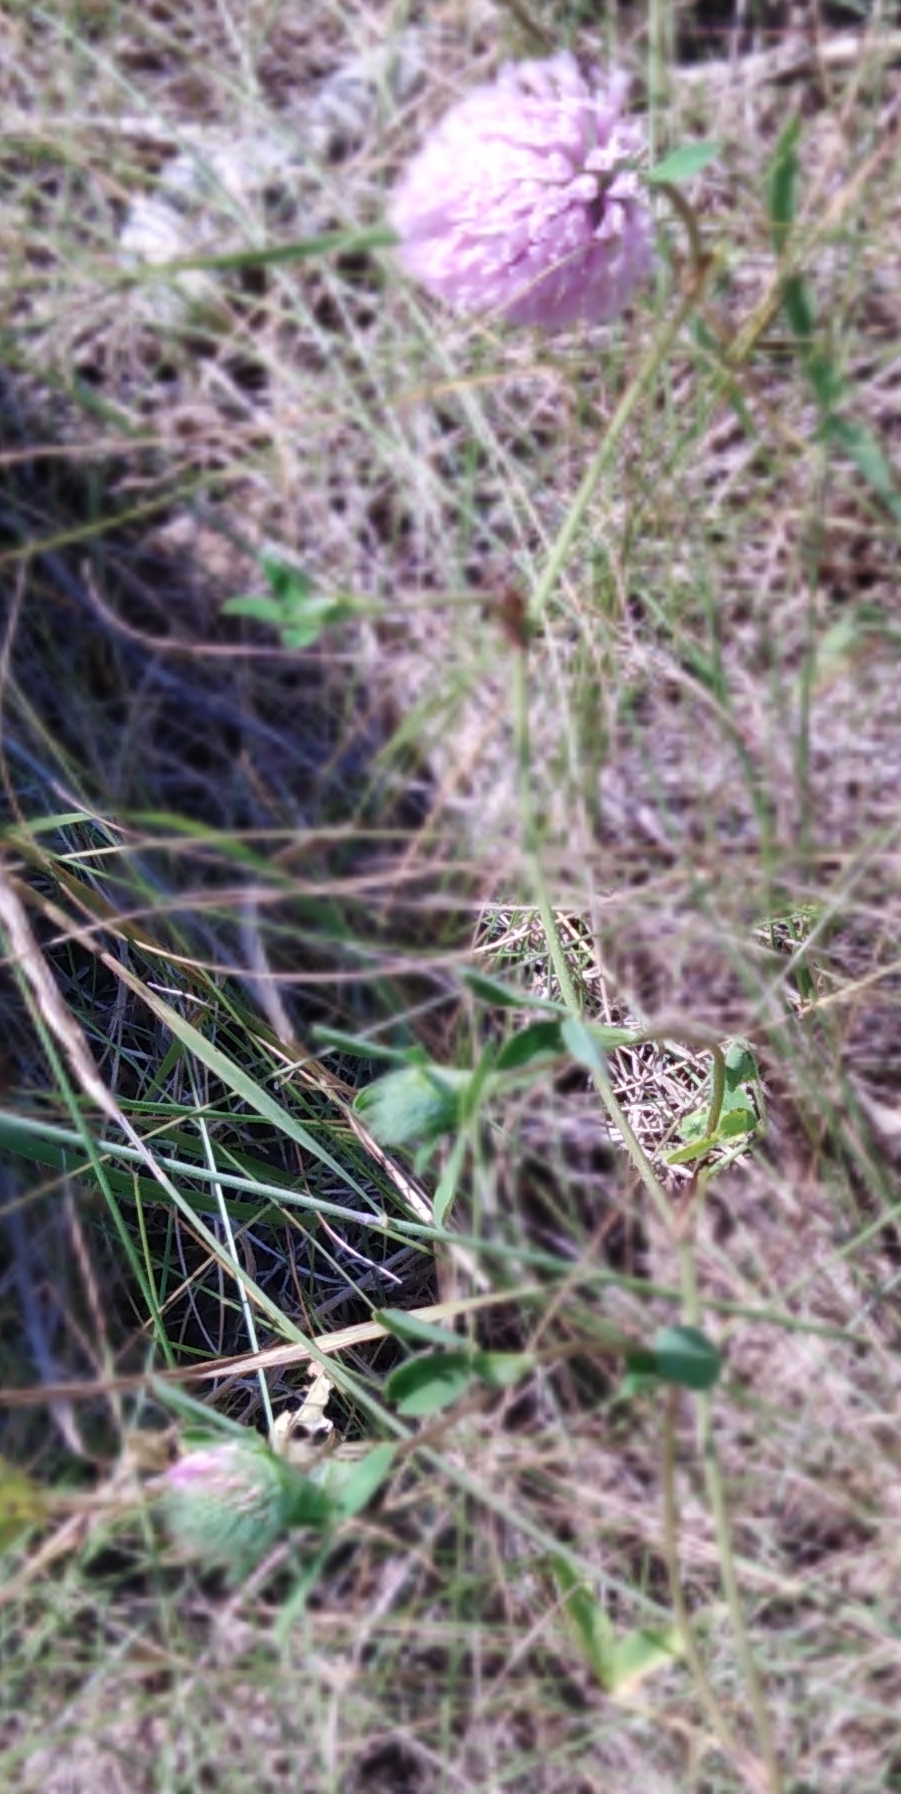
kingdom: Plantae
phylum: Tracheophyta
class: Magnoliopsida
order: Fabales
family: Fabaceae
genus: Trifolium
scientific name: Trifolium pratense
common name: Red clover
